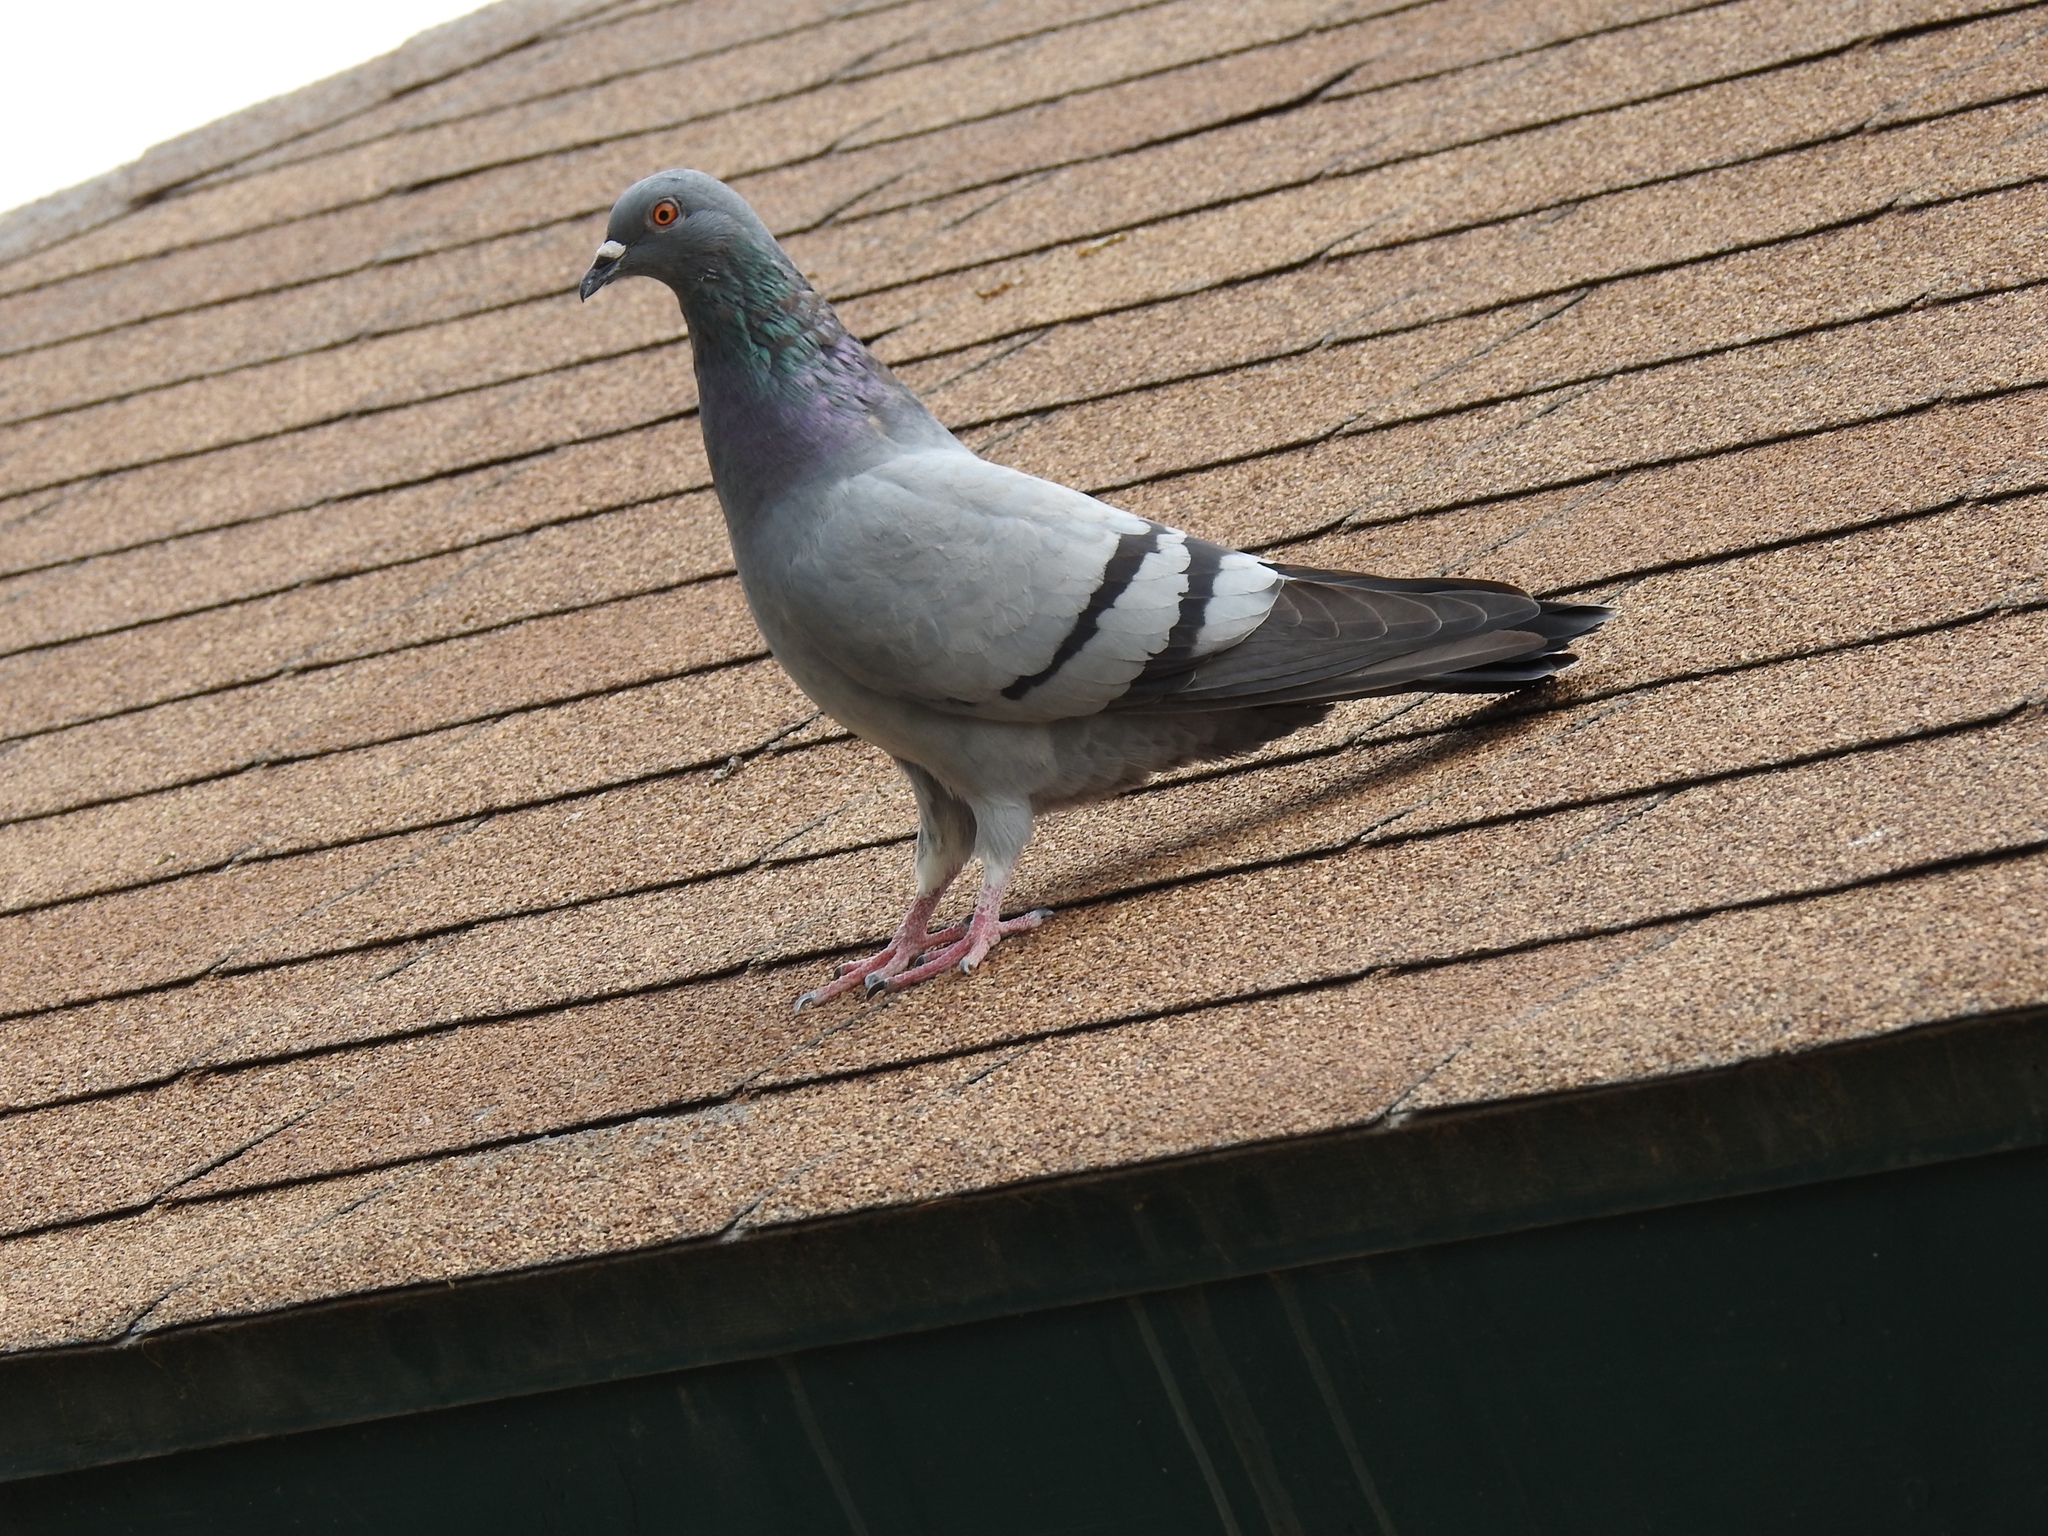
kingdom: Animalia
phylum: Chordata
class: Aves
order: Columbiformes
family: Columbidae
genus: Columba
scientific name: Columba livia
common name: Rock pigeon
